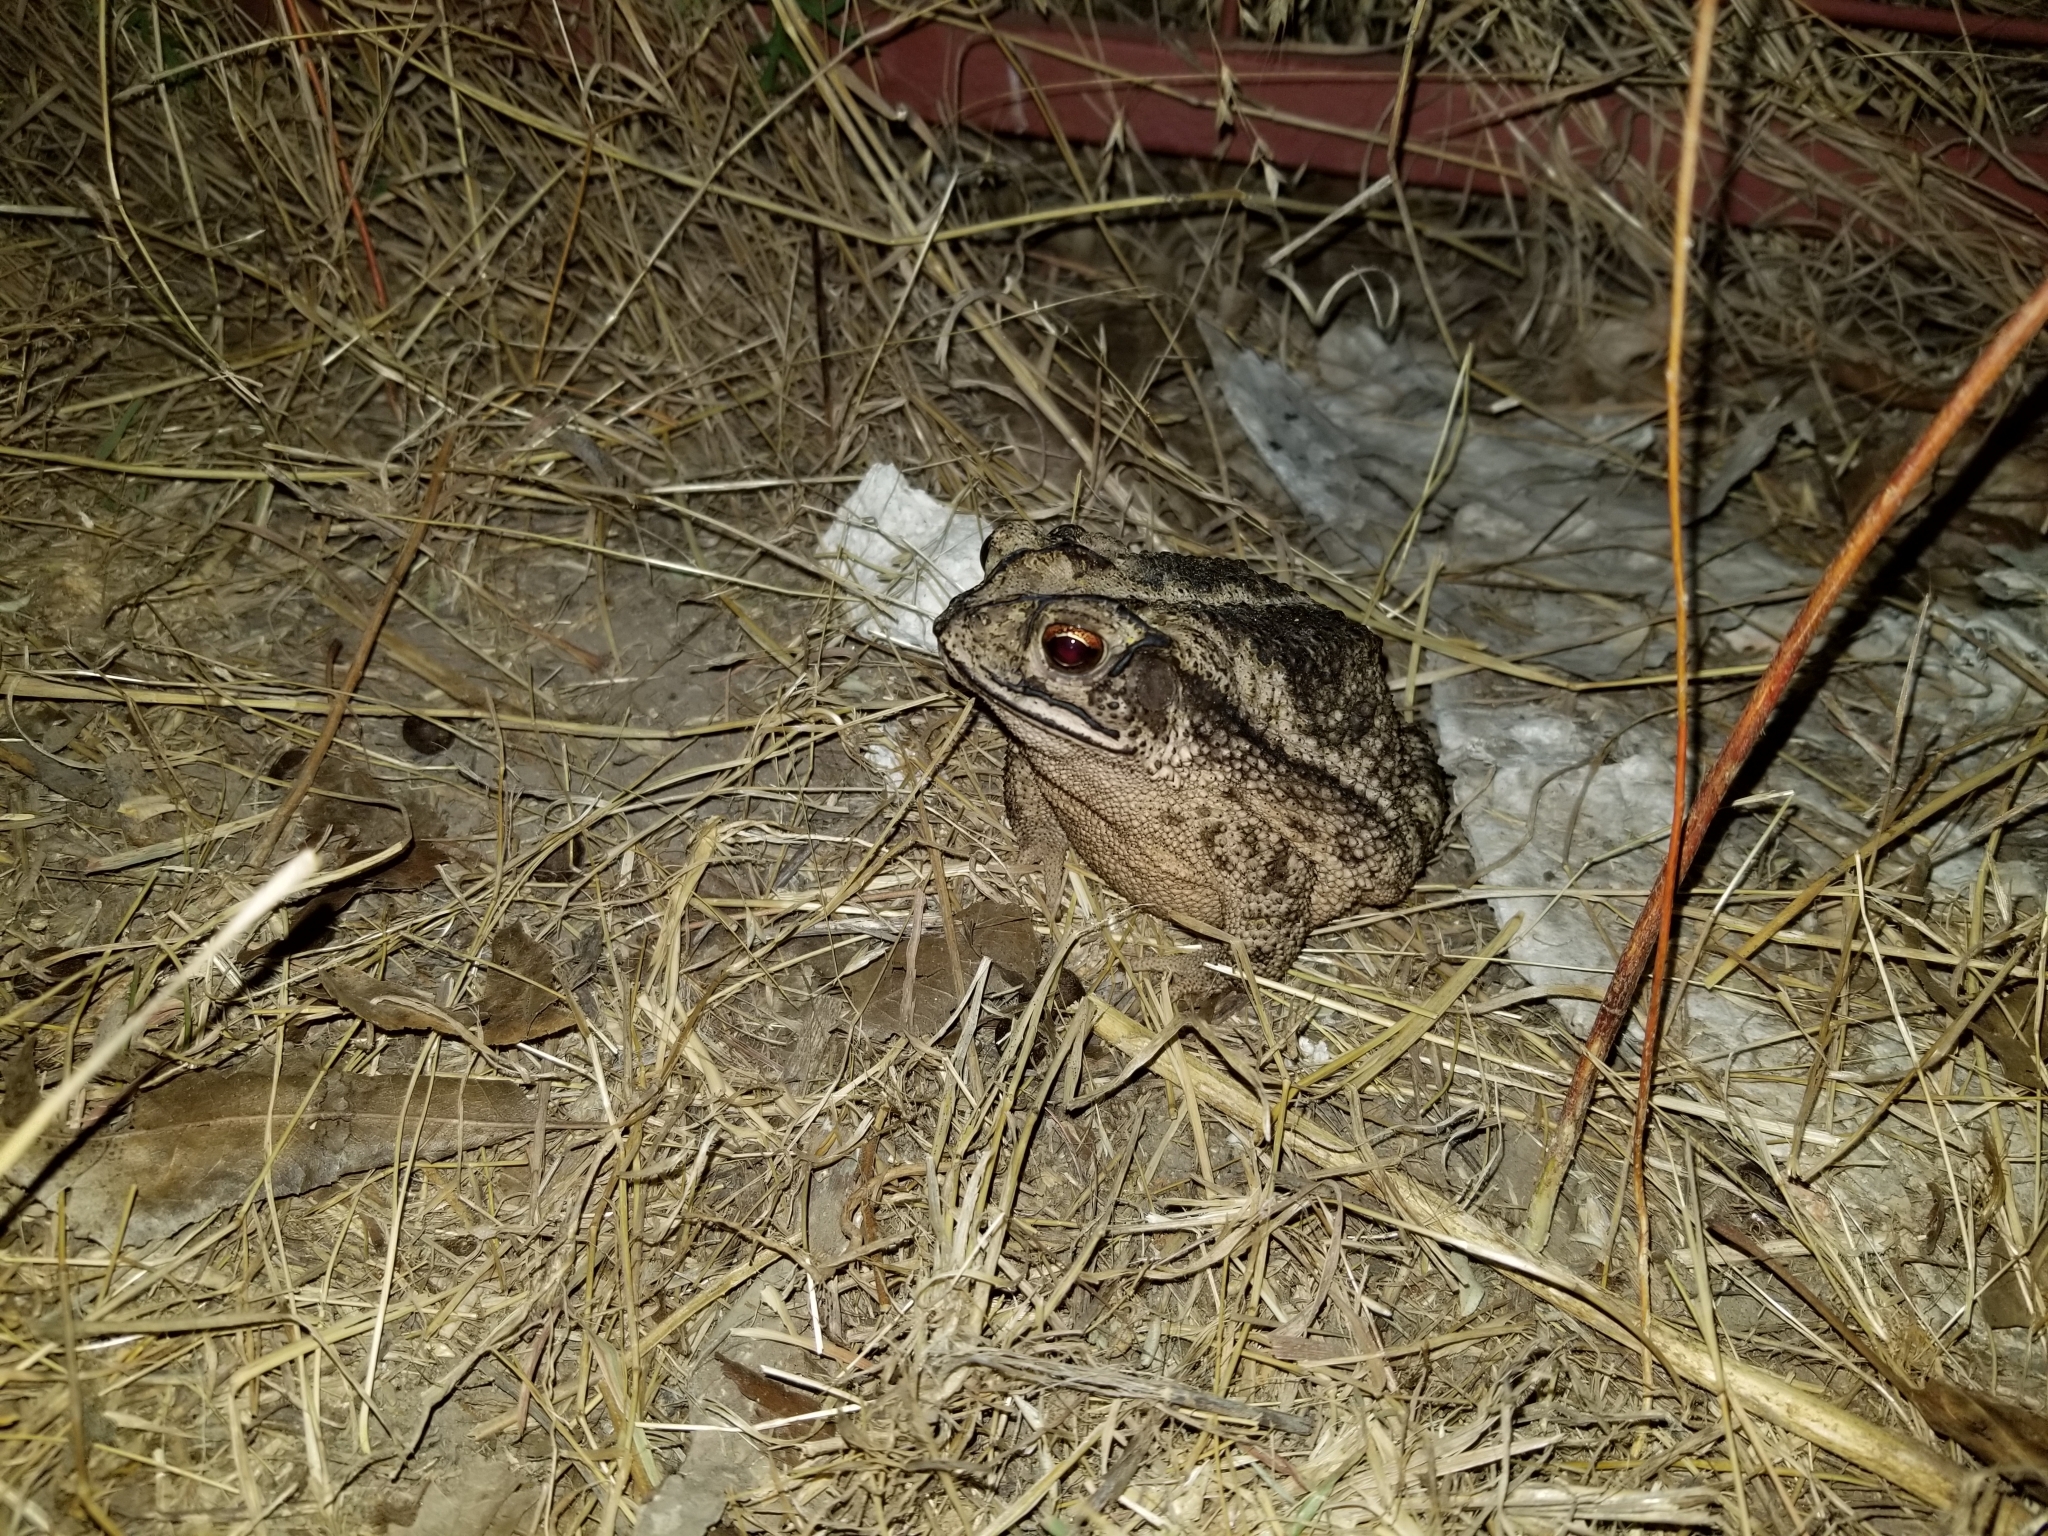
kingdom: Animalia
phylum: Chordata
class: Amphibia
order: Anura
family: Bufonidae
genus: Incilius
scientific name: Incilius nebulifer
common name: Gulf coast toad
